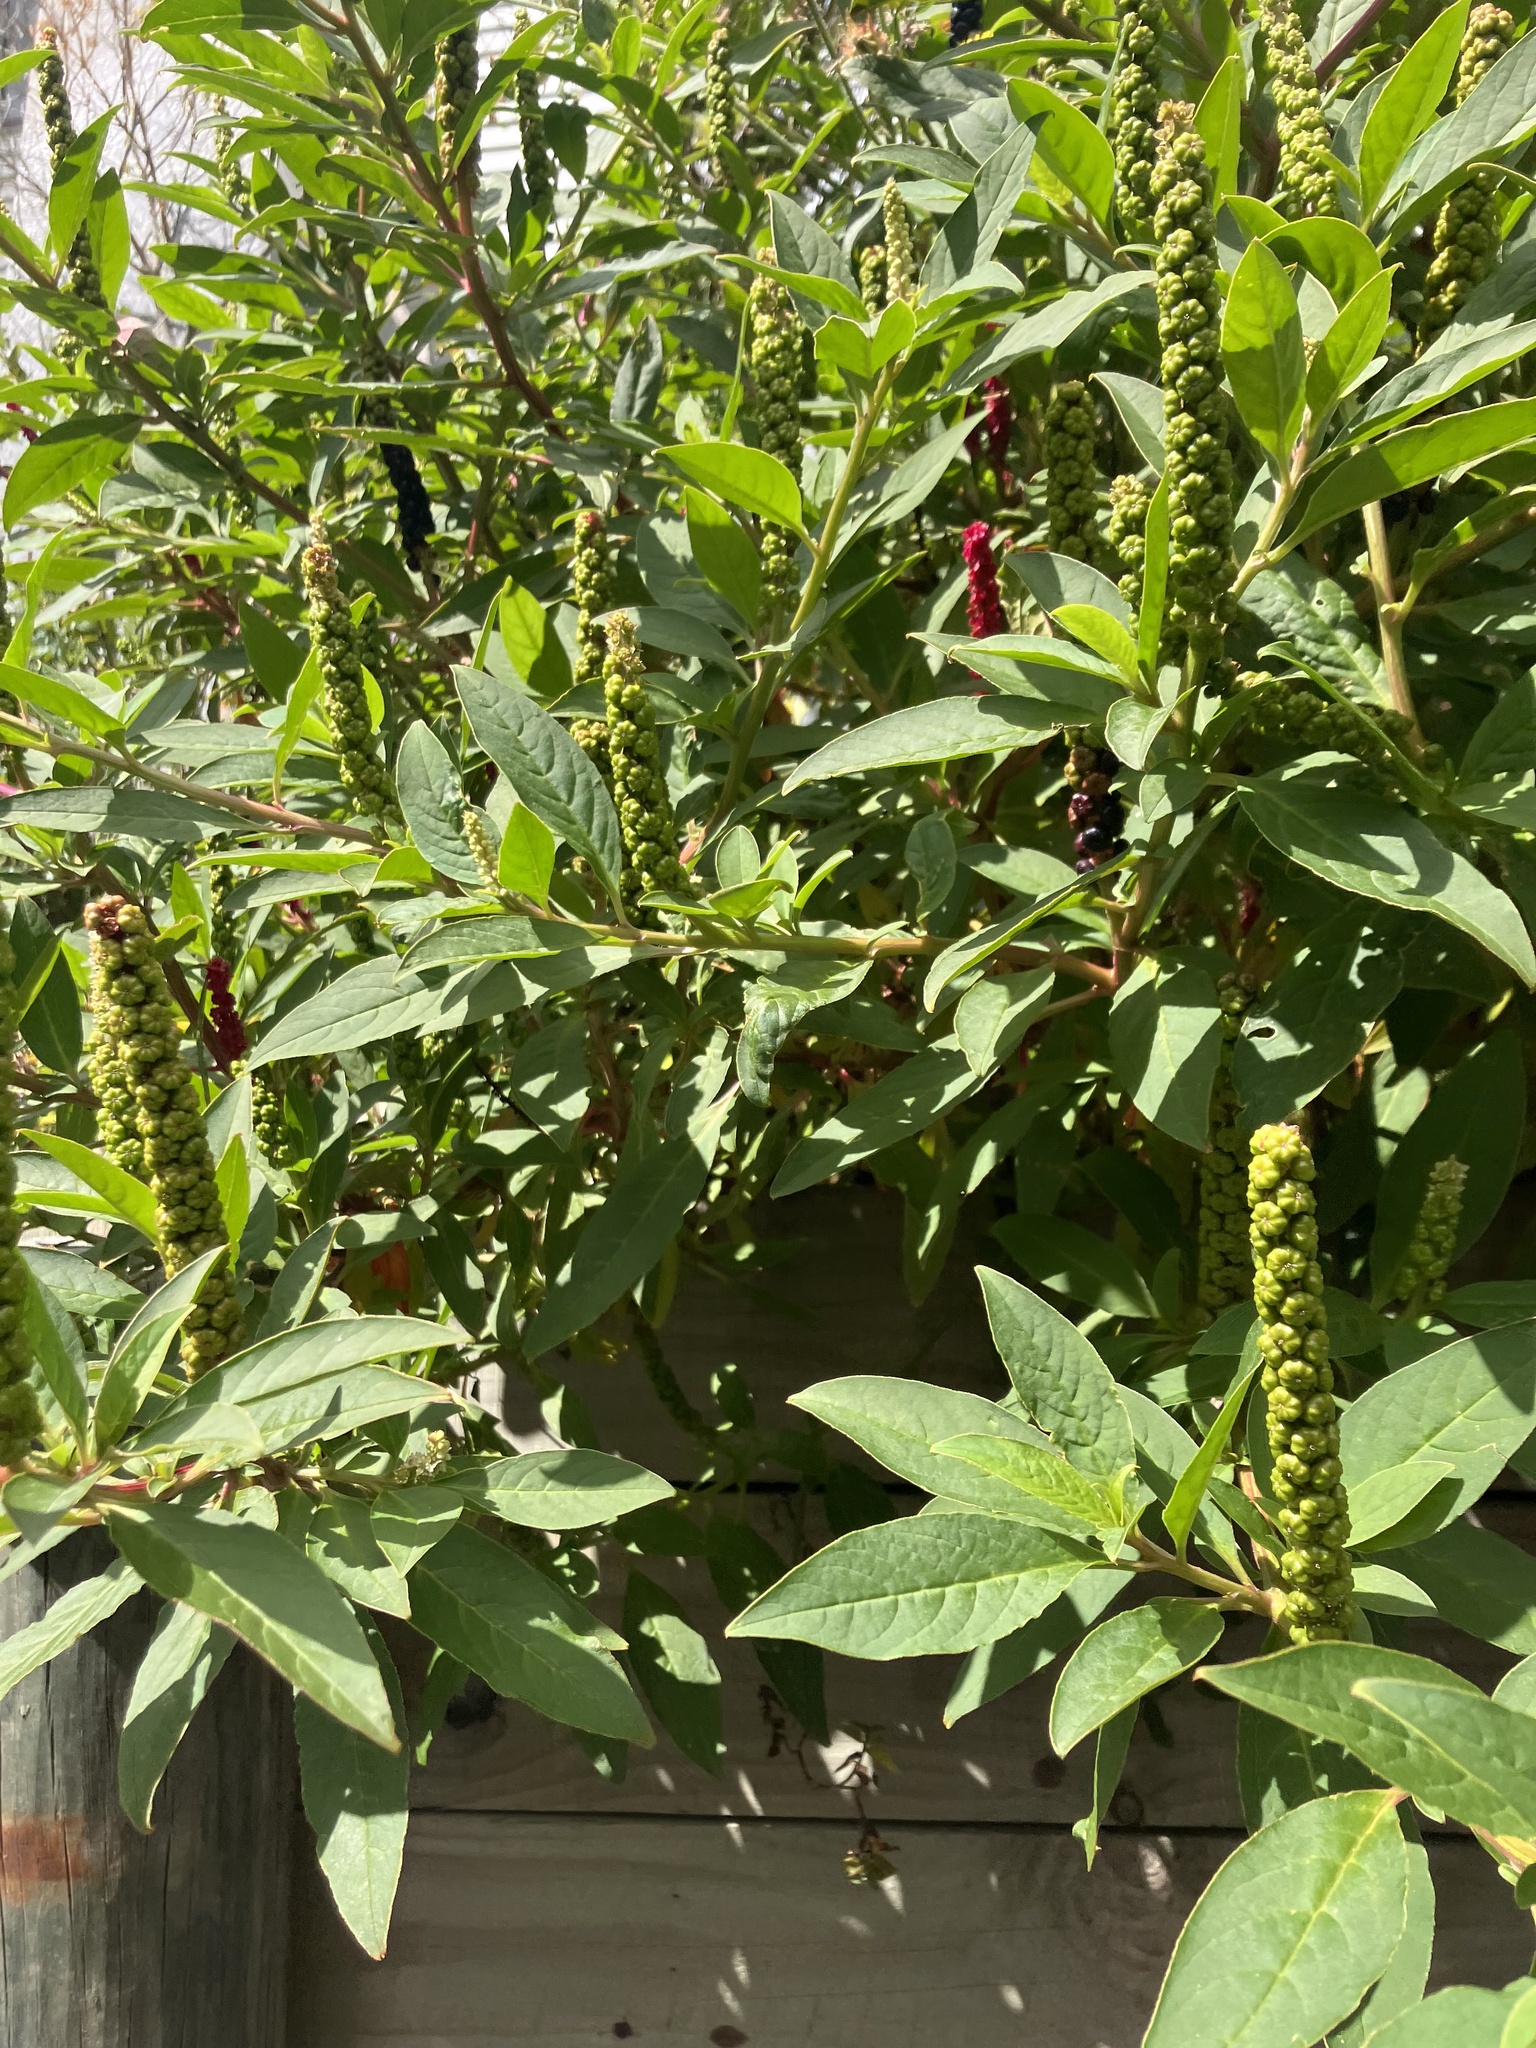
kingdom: Plantae
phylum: Tracheophyta
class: Magnoliopsida
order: Caryophyllales
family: Phytolaccaceae
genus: Phytolacca
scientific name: Phytolacca icosandra
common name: Button pokeweed
